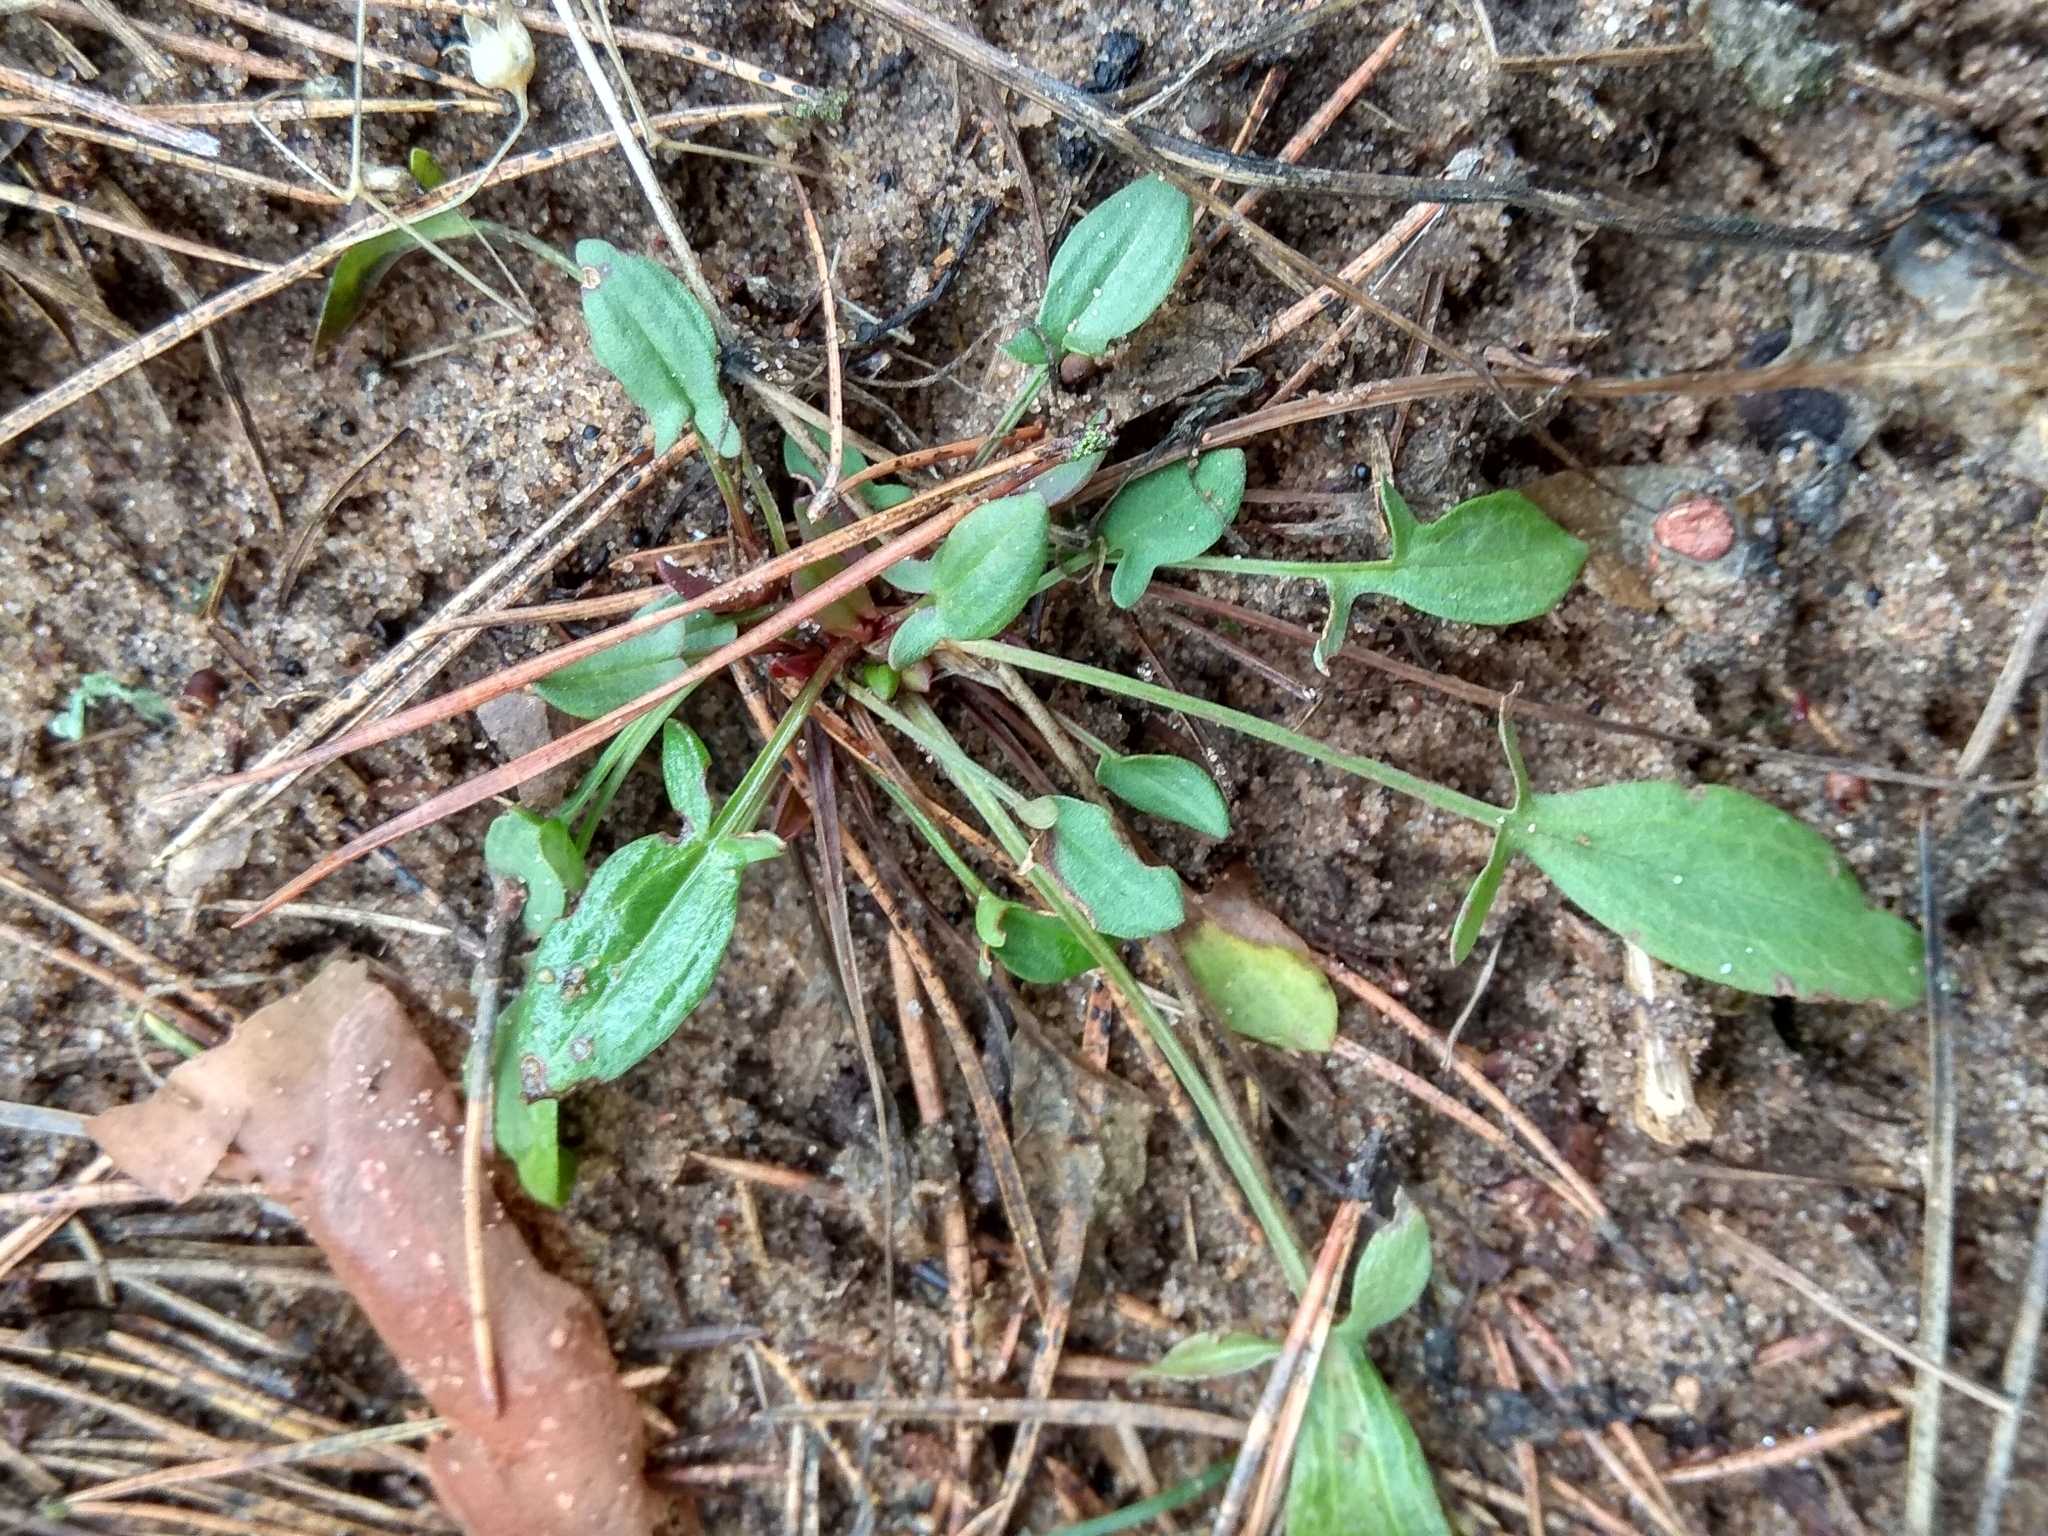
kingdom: Plantae
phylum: Tracheophyta
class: Magnoliopsida
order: Caryophyllales
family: Polygonaceae
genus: Rumex
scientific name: Rumex acetosella
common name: Common sheep sorrel
